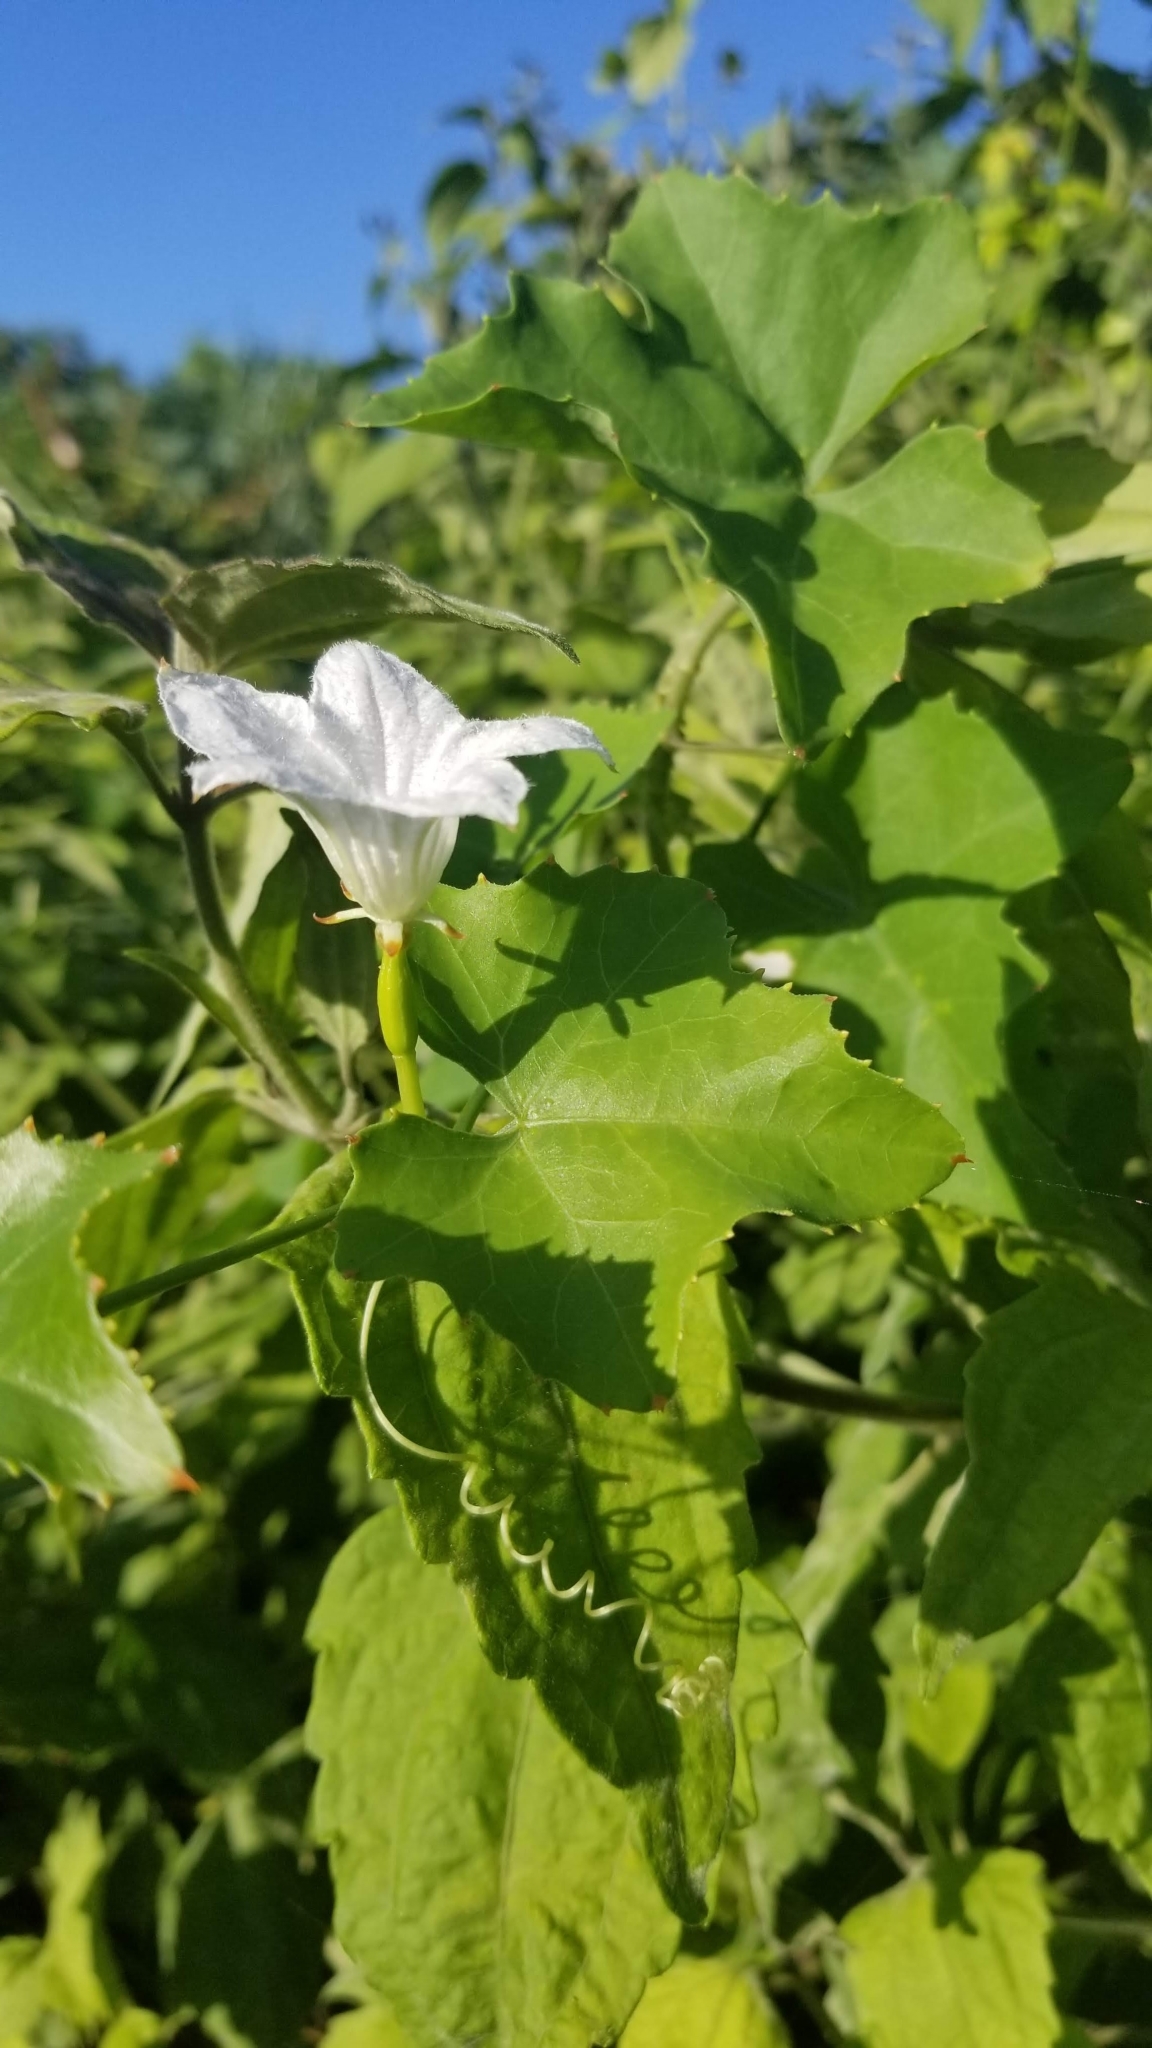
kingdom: Plantae
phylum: Tracheophyta
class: Magnoliopsida
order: Cucurbitales
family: Cucurbitaceae
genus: Coccinia
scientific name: Coccinia grandis
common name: Ivy gourd
